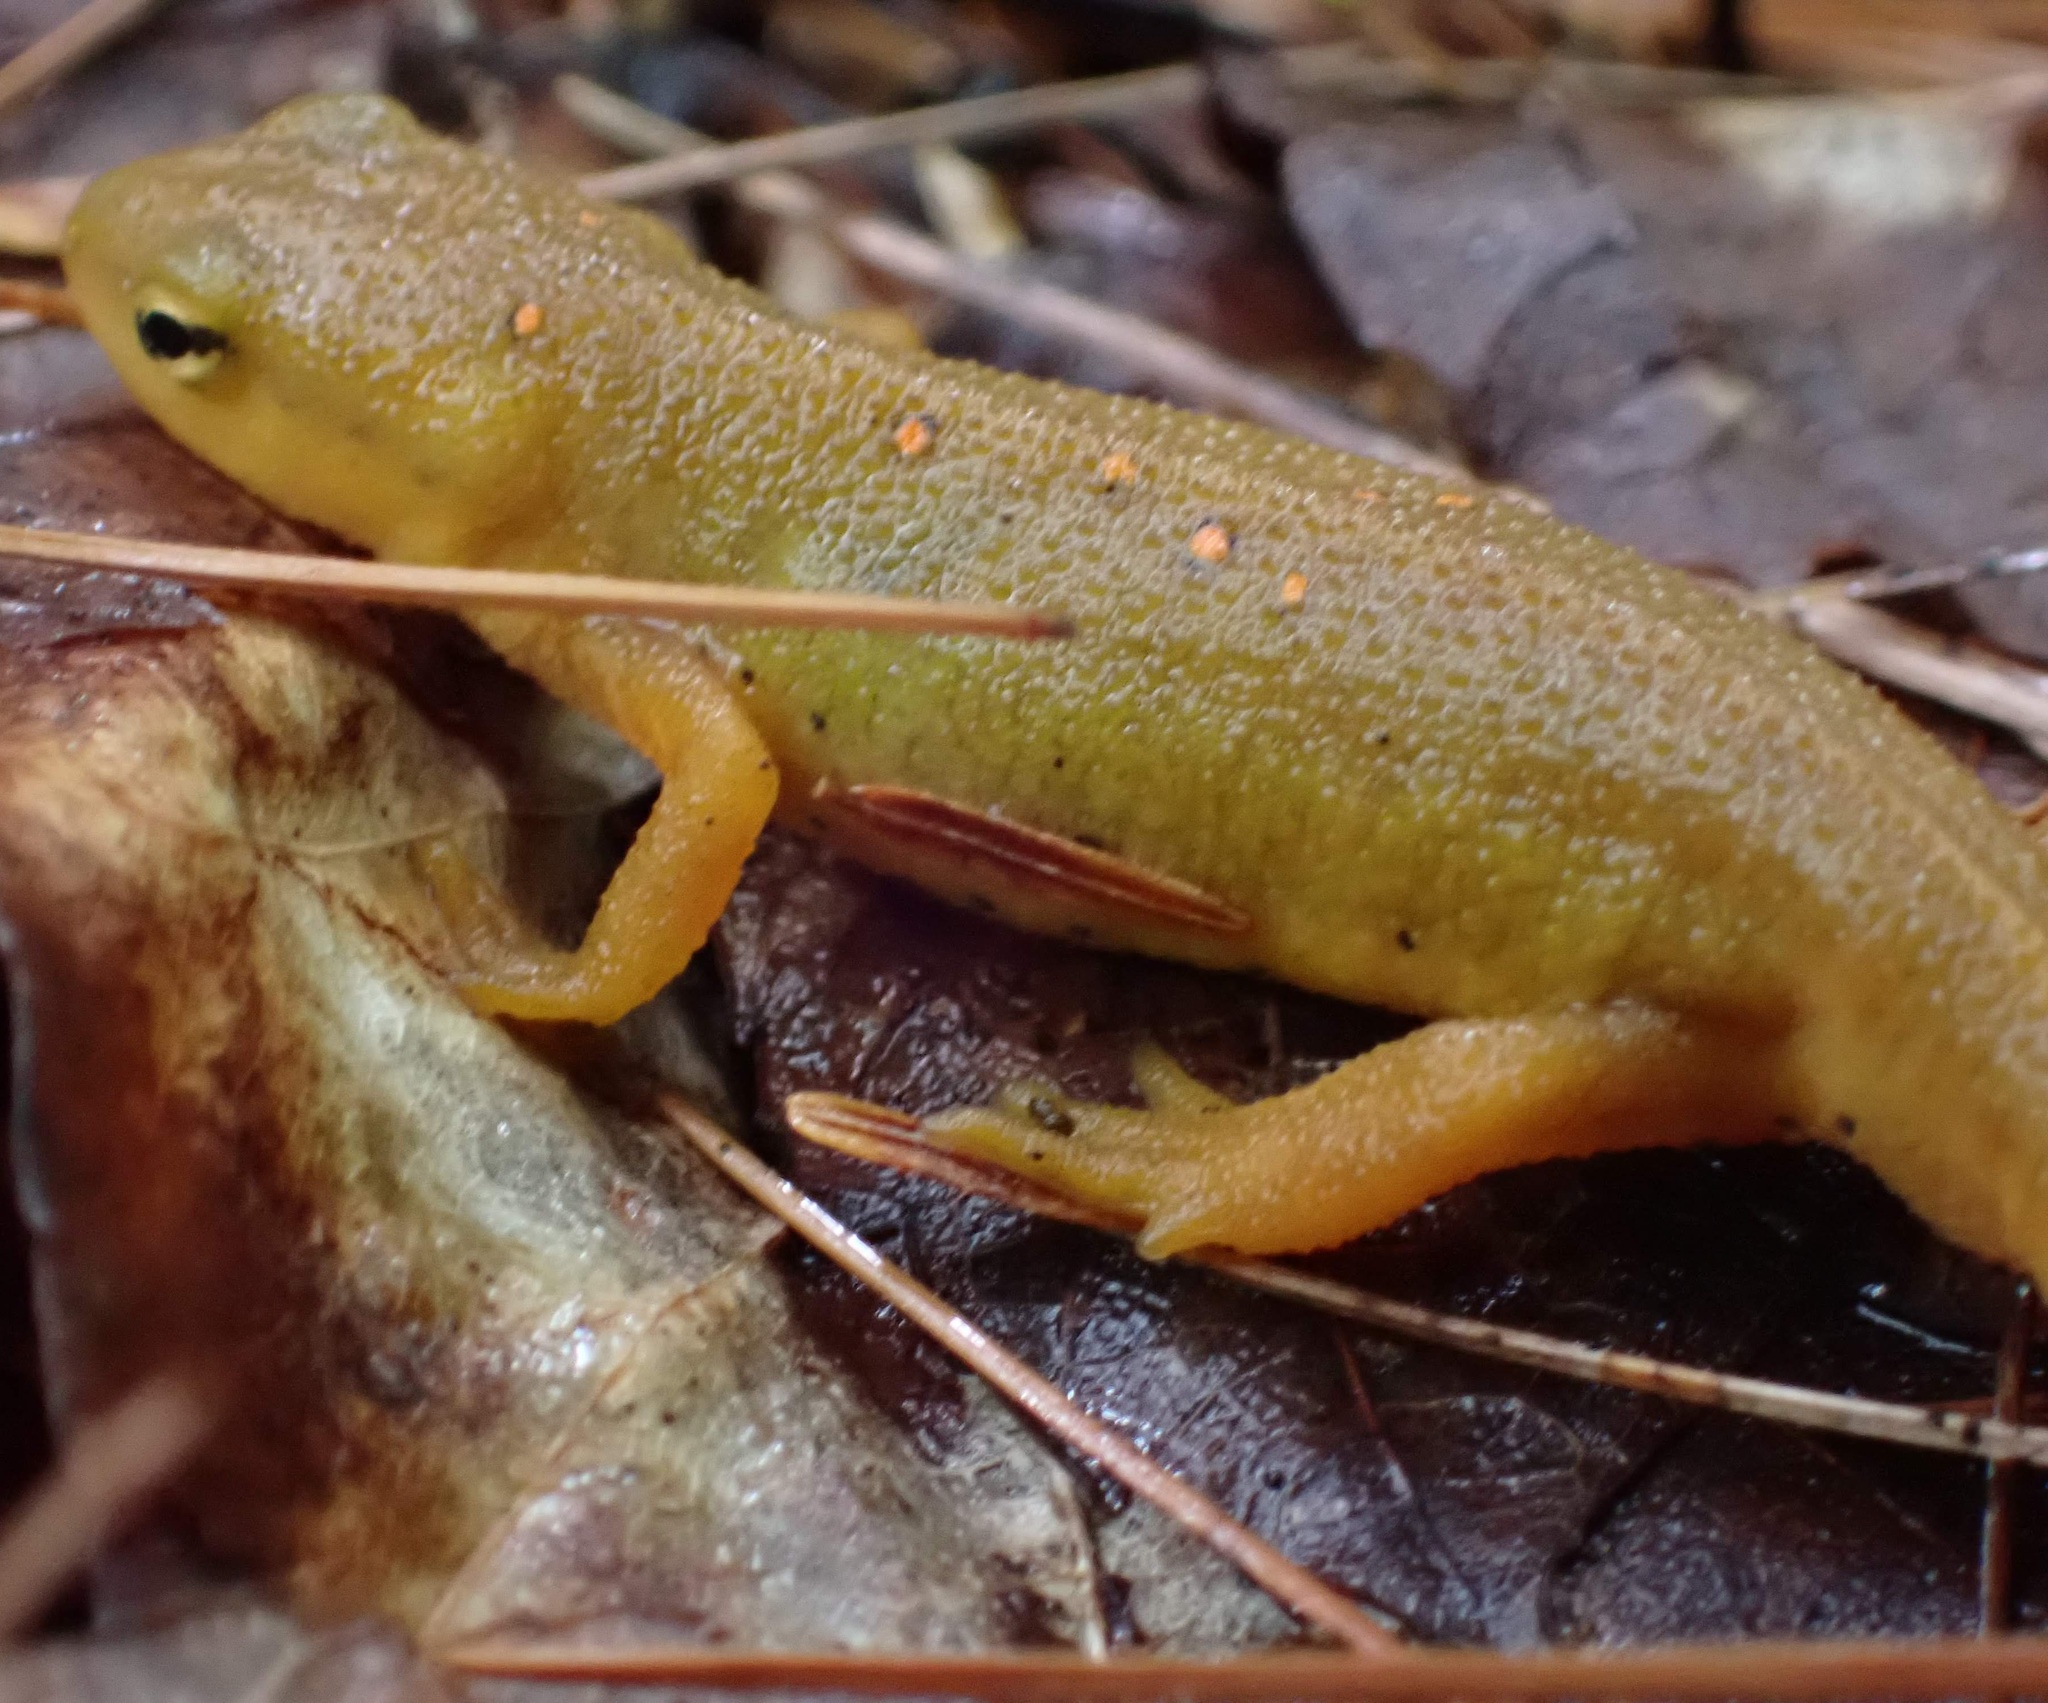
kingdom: Animalia
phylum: Chordata
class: Amphibia
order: Caudata
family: Salamandridae
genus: Notophthalmus
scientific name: Notophthalmus viridescens
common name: Eastern newt
